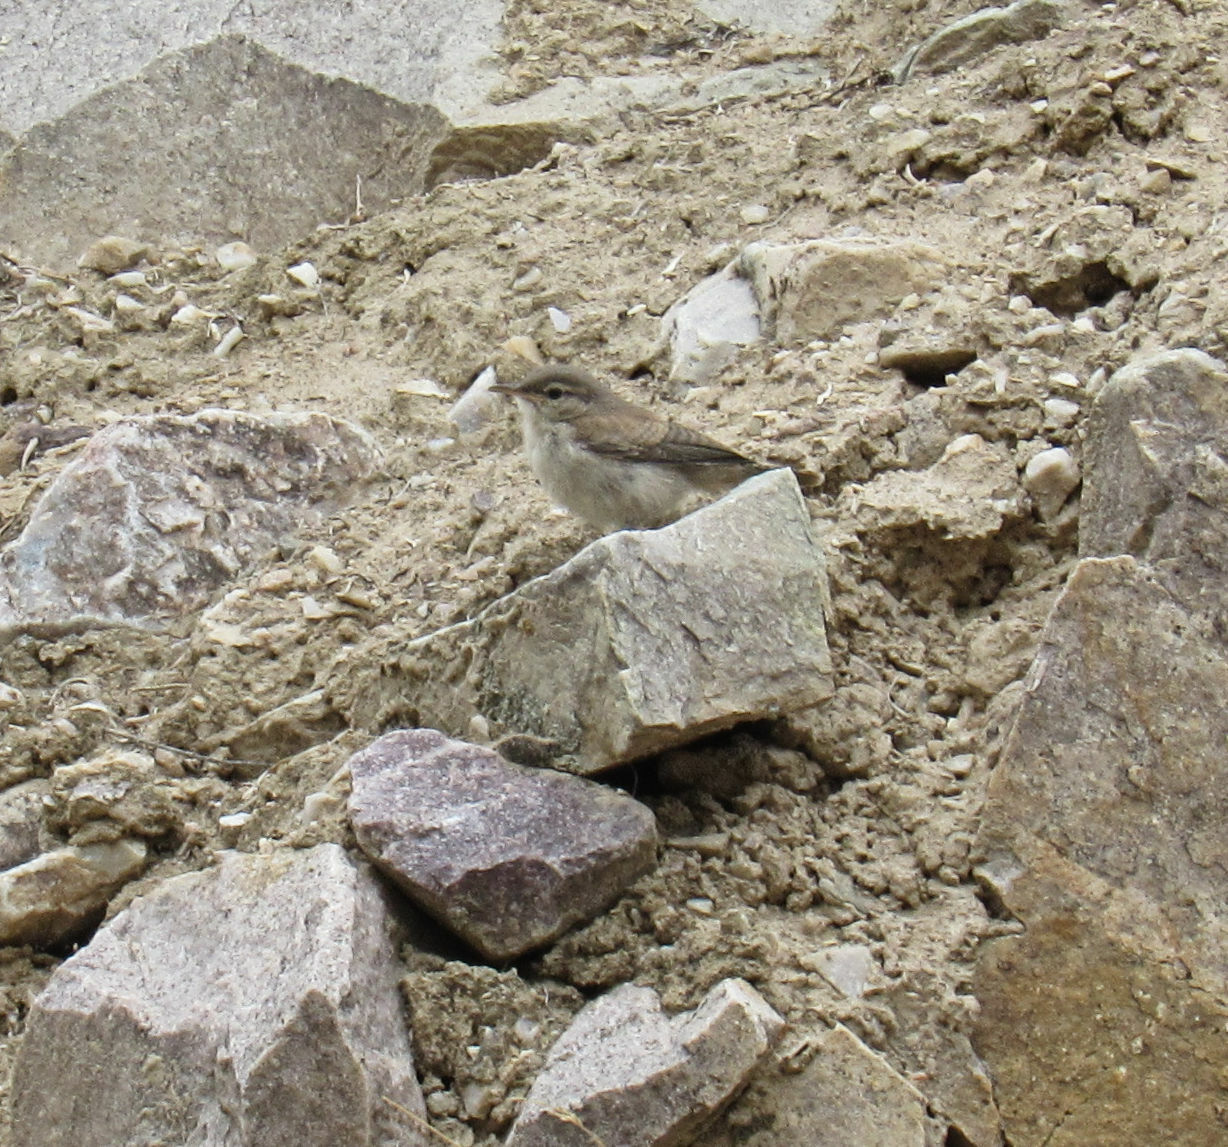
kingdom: Animalia
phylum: Chordata
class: Aves
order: Passeriformes
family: Troglodytidae
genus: Salpinctes
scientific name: Salpinctes obsoletus
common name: Rock wren
